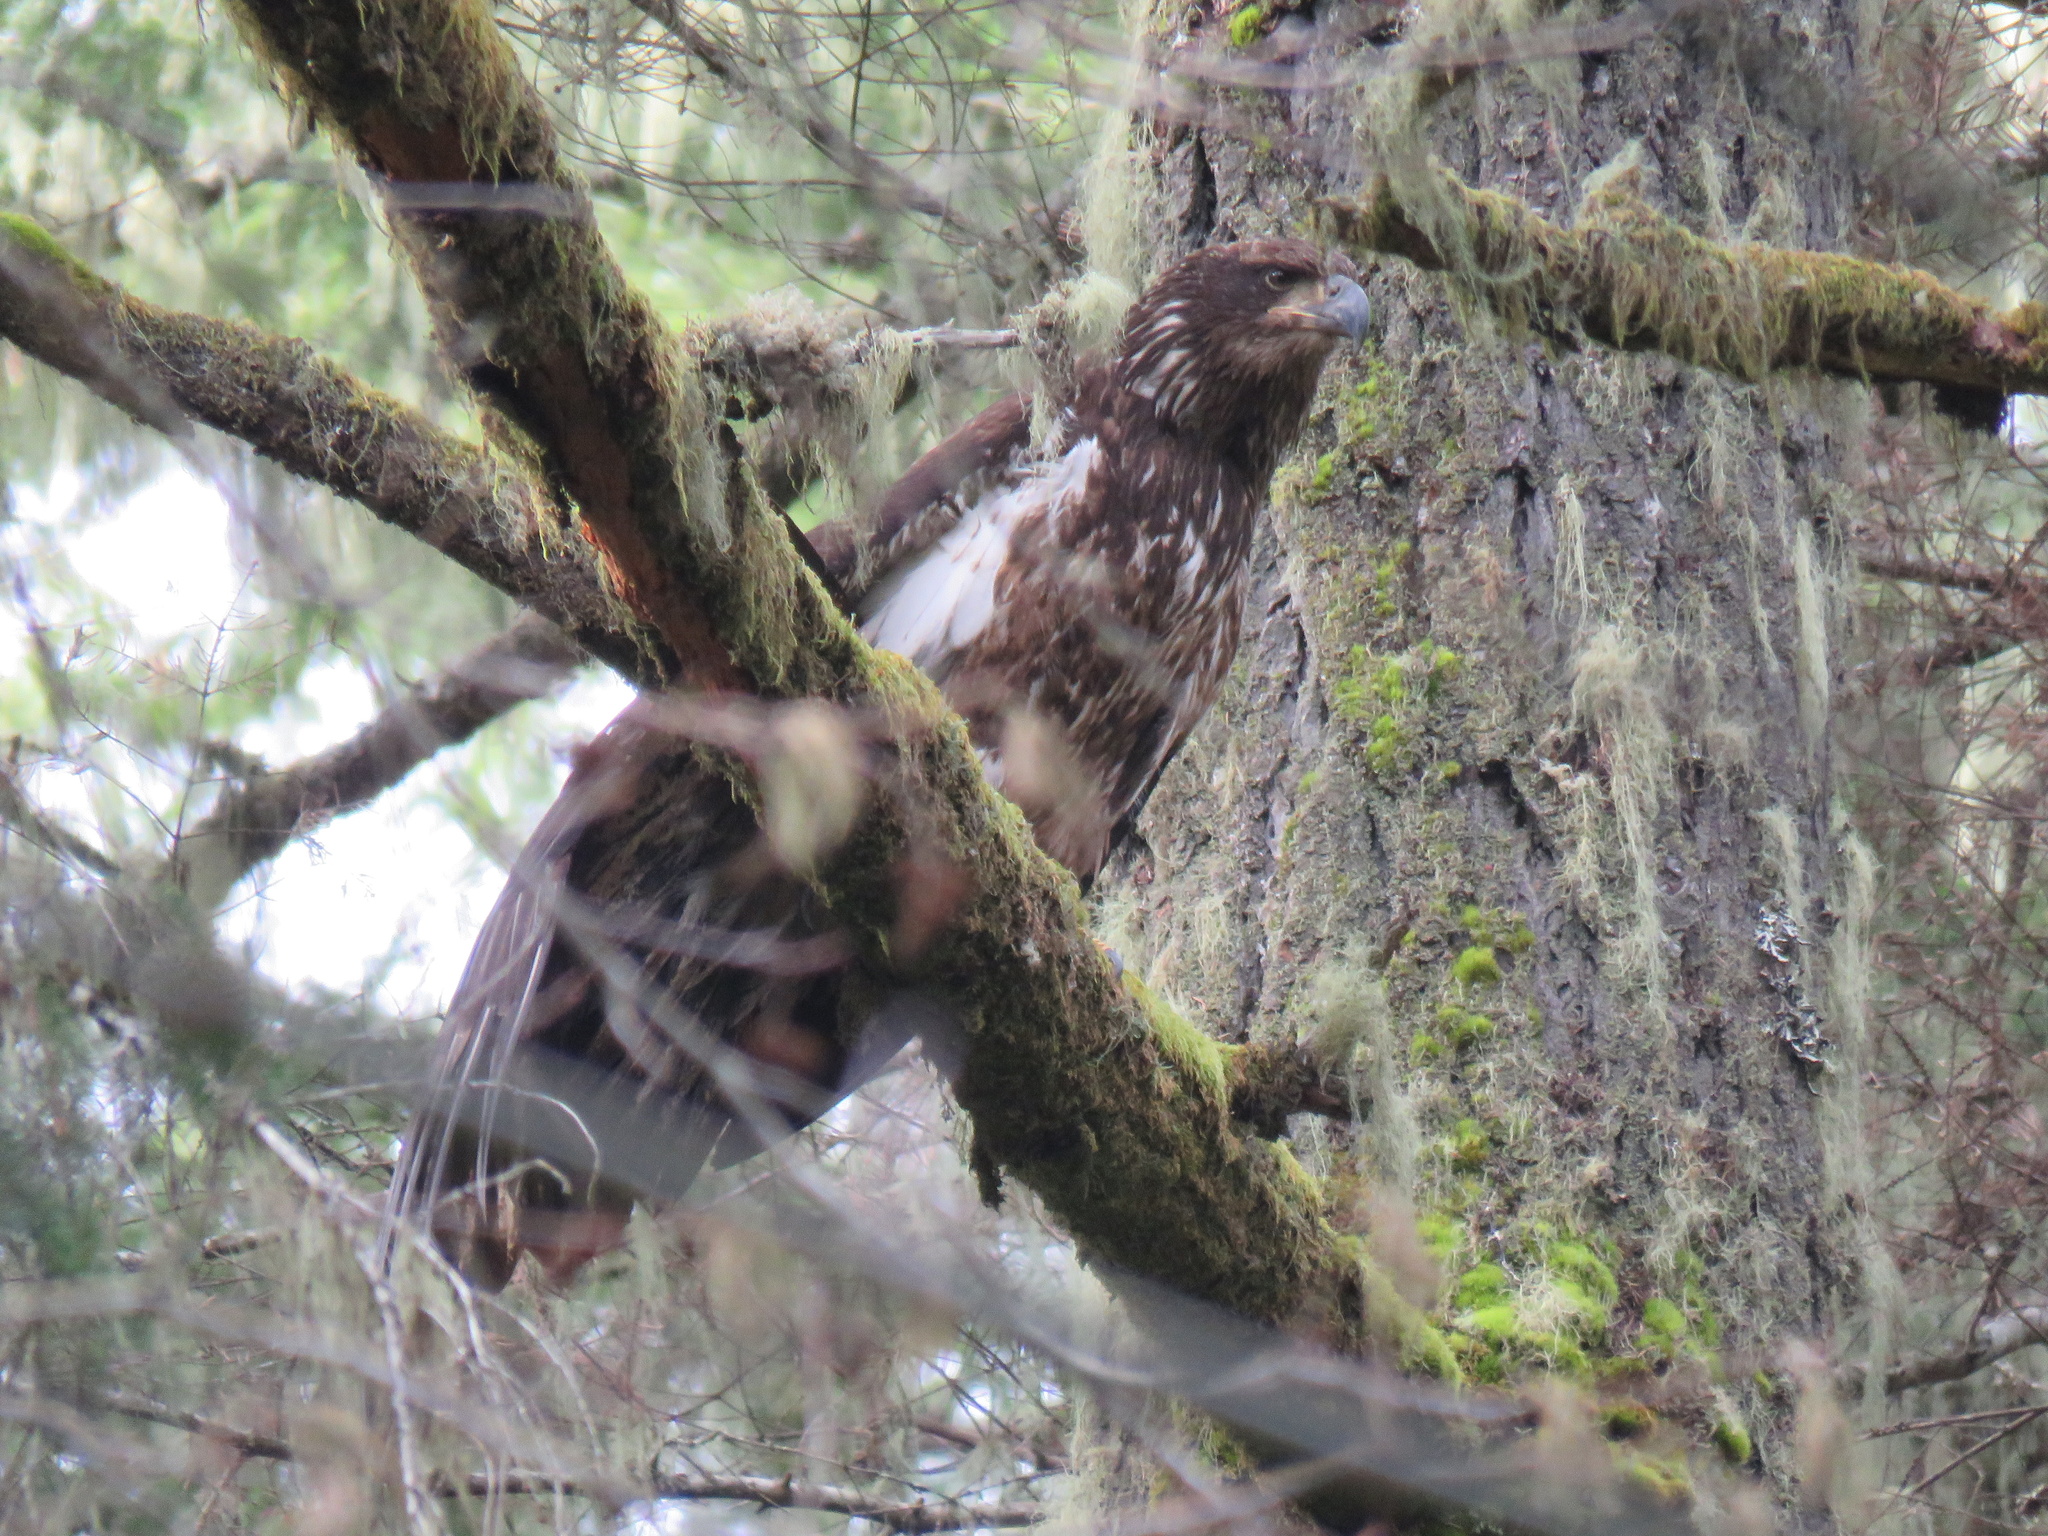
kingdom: Animalia
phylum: Chordata
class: Aves
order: Accipitriformes
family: Accipitridae
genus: Haliaeetus
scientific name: Haliaeetus leucocephalus
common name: Bald eagle
